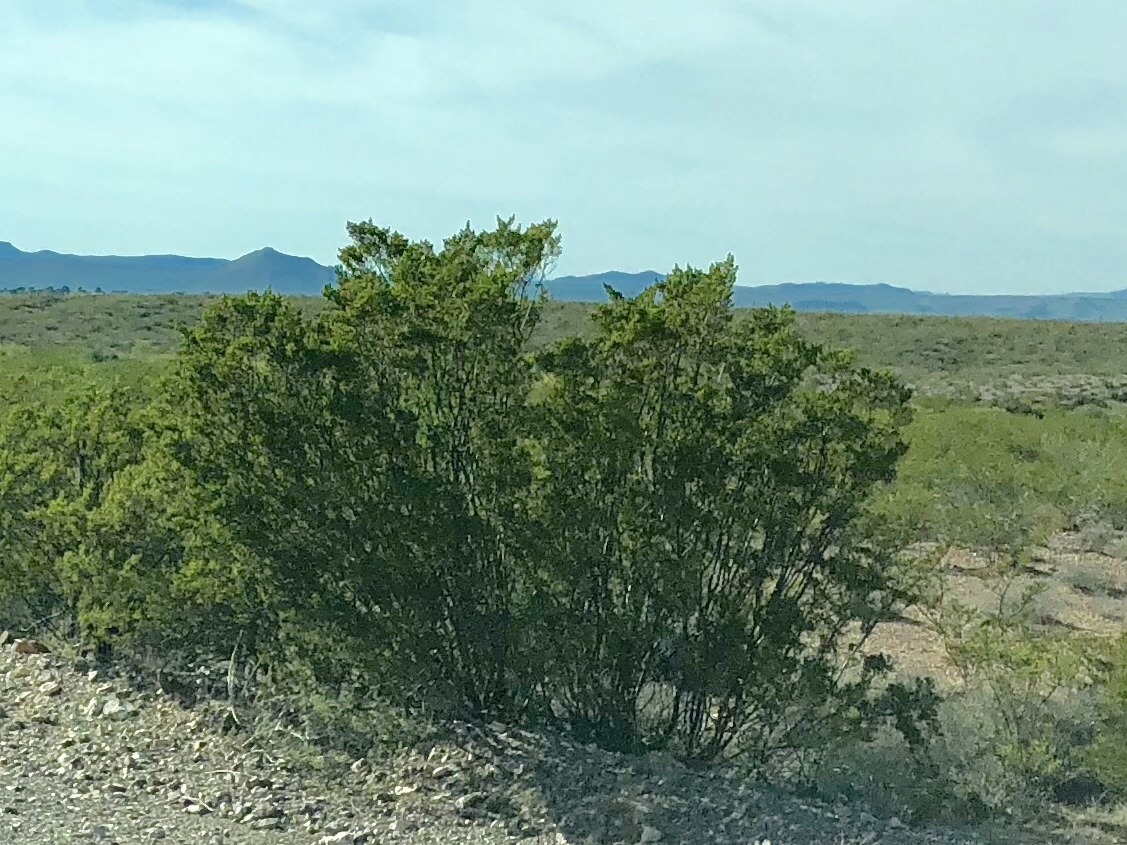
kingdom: Plantae
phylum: Tracheophyta
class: Magnoliopsida
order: Zygophyllales
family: Zygophyllaceae
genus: Larrea
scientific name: Larrea tridentata
